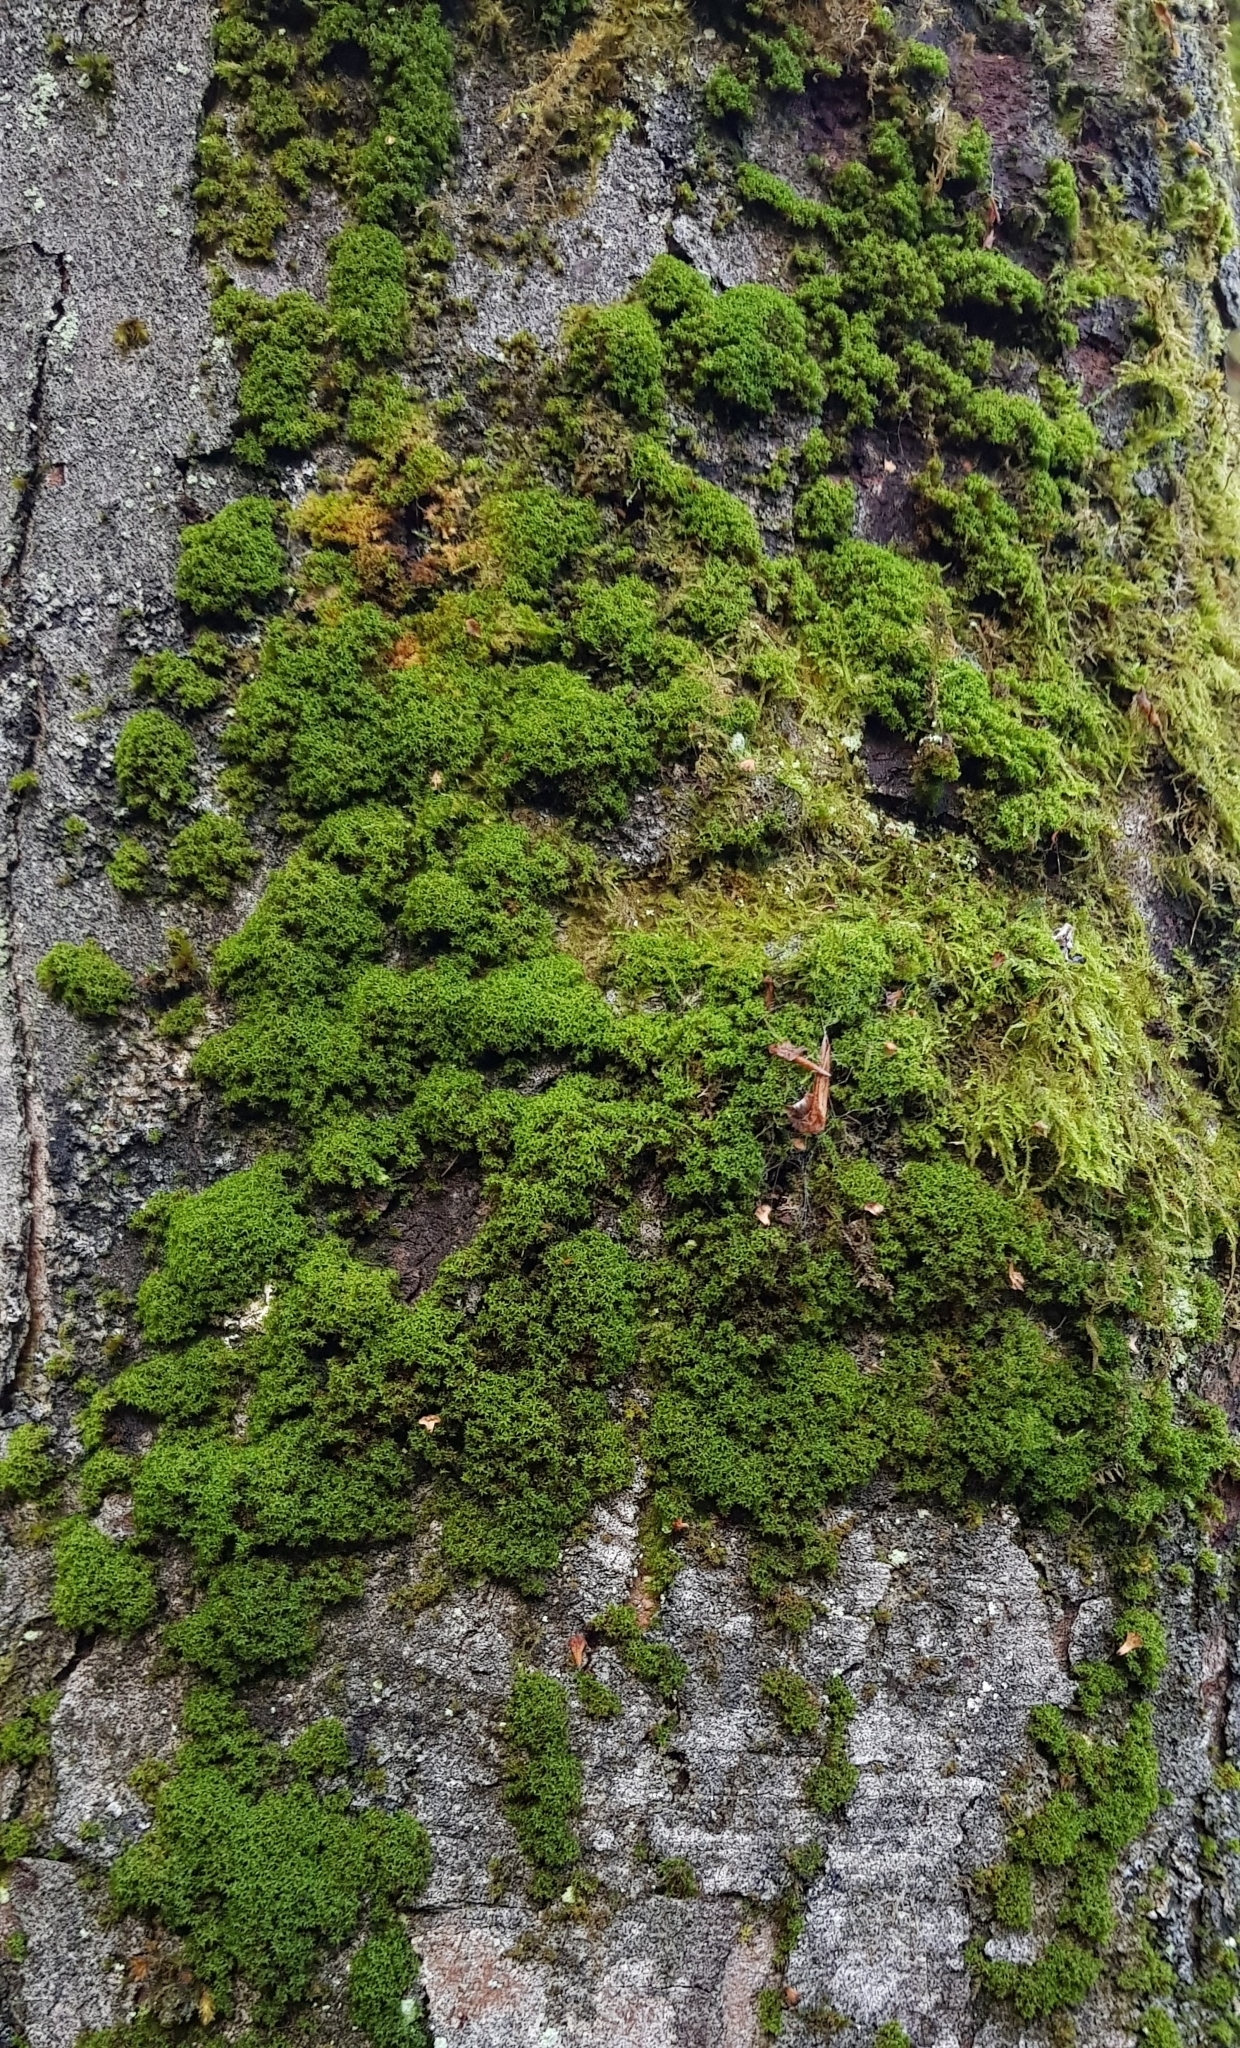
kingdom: Plantae
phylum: Bryophyta
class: Bryopsida
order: Orthotrichales
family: Orthotrichaceae
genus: Zygodon
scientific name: Zygodon viridissimus
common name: Green yoke moss
